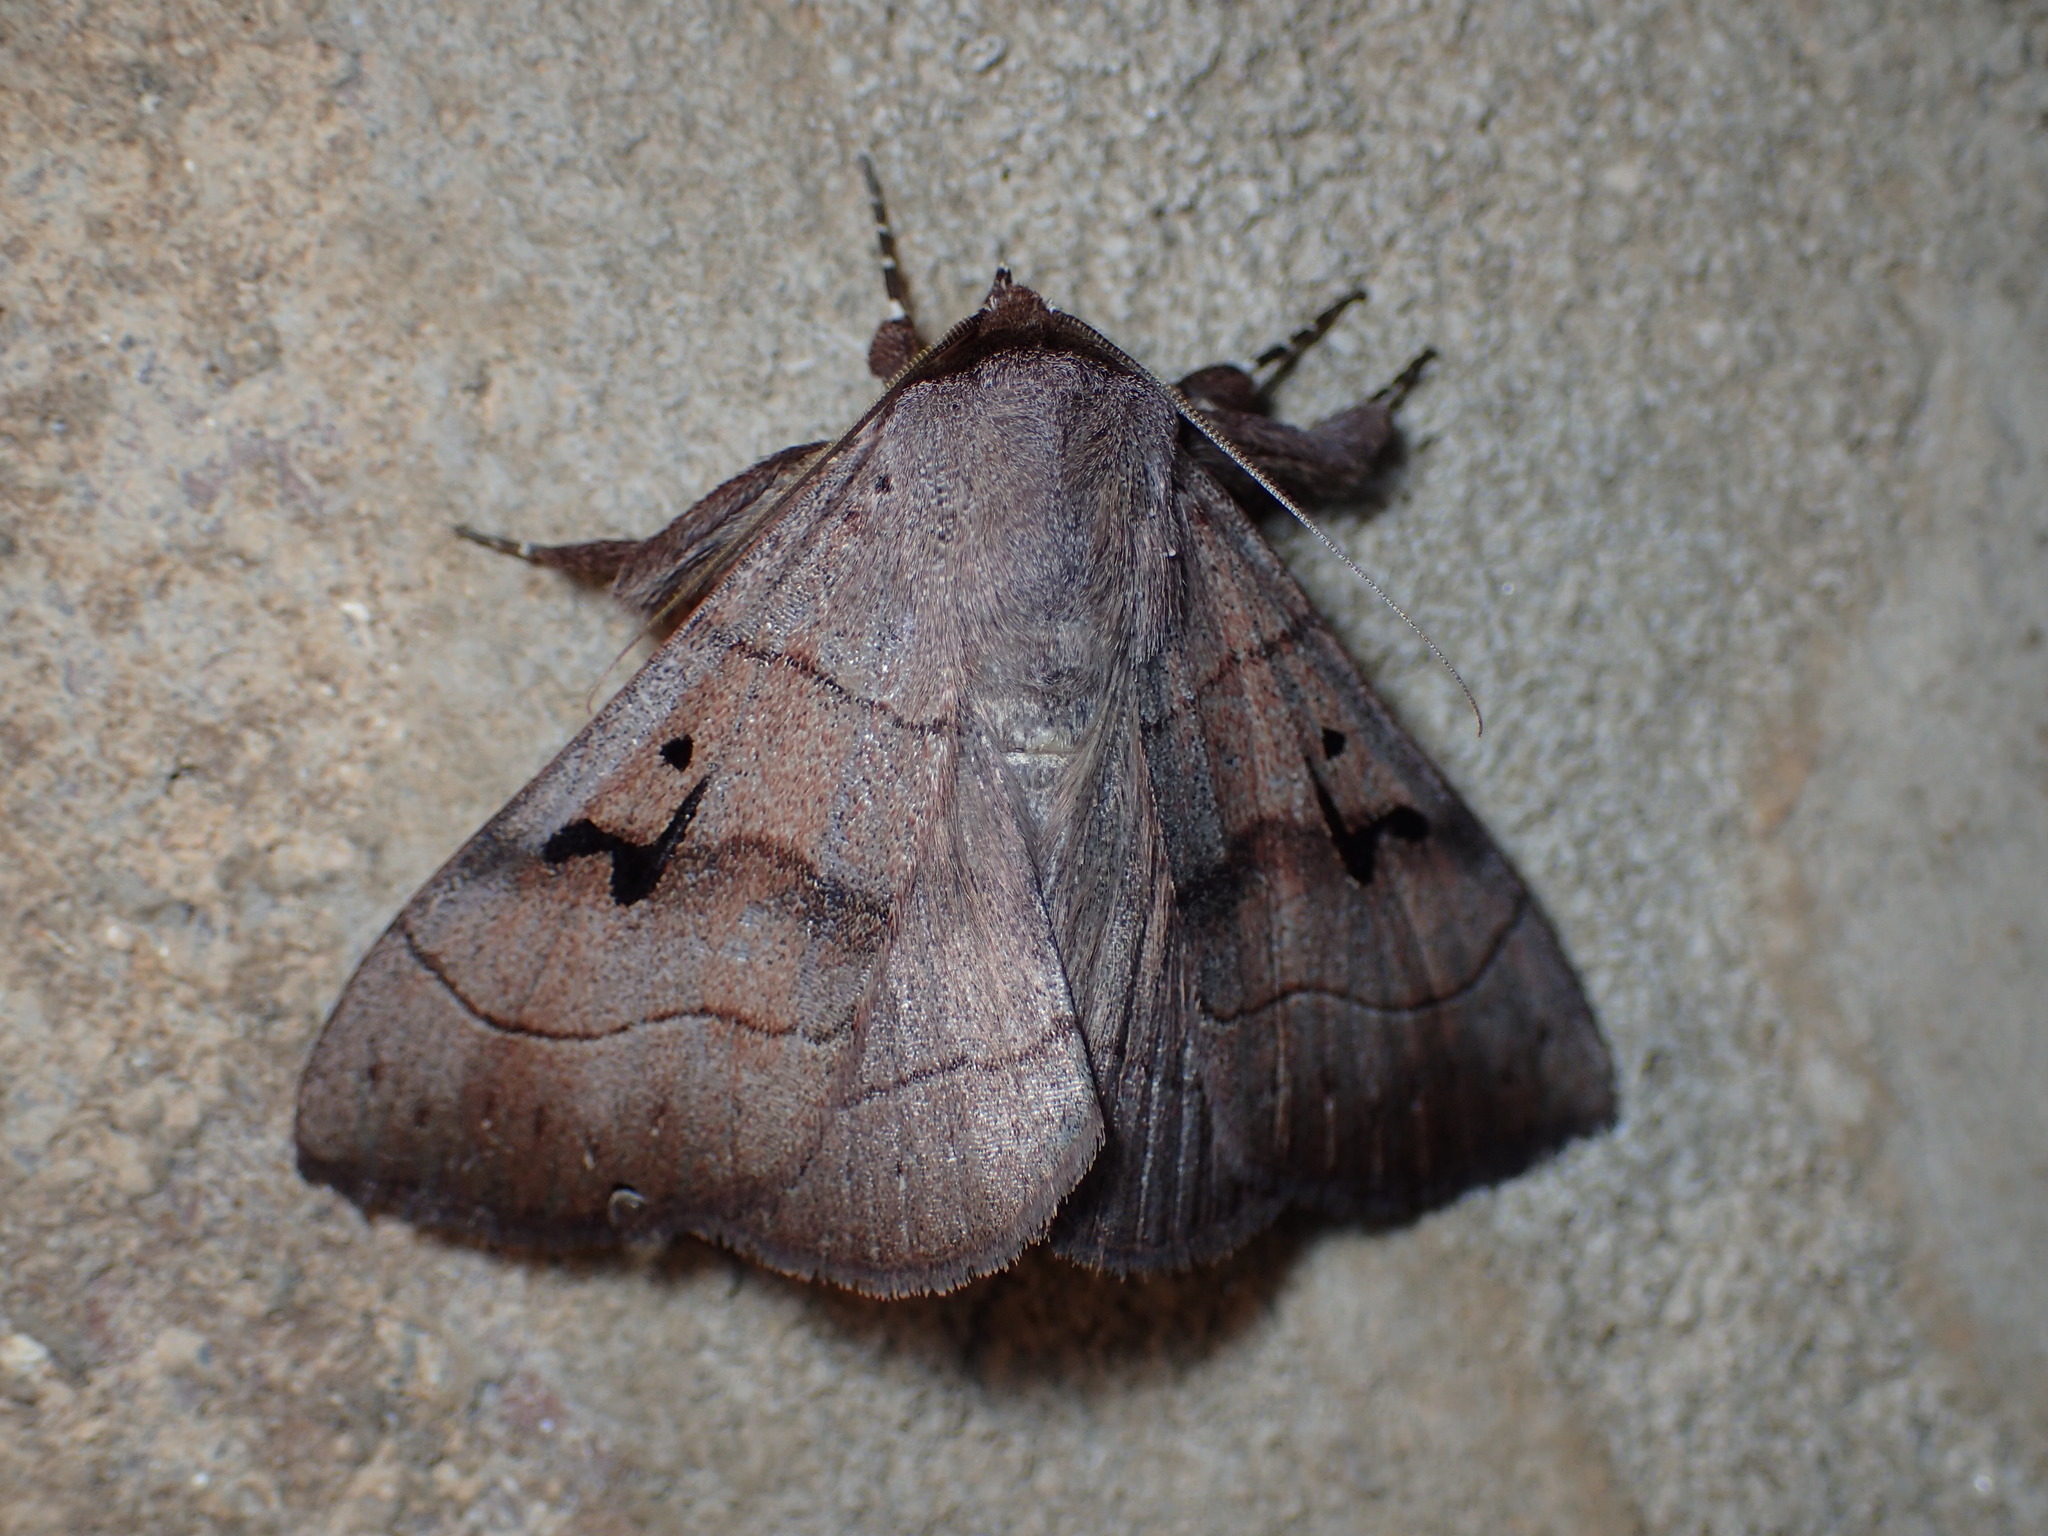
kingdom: Animalia
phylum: Arthropoda
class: Insecta
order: Lepidoptera
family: Erebidae
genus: Panopoda
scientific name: Panopoda carneicosta
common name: Brown panopoda moth
